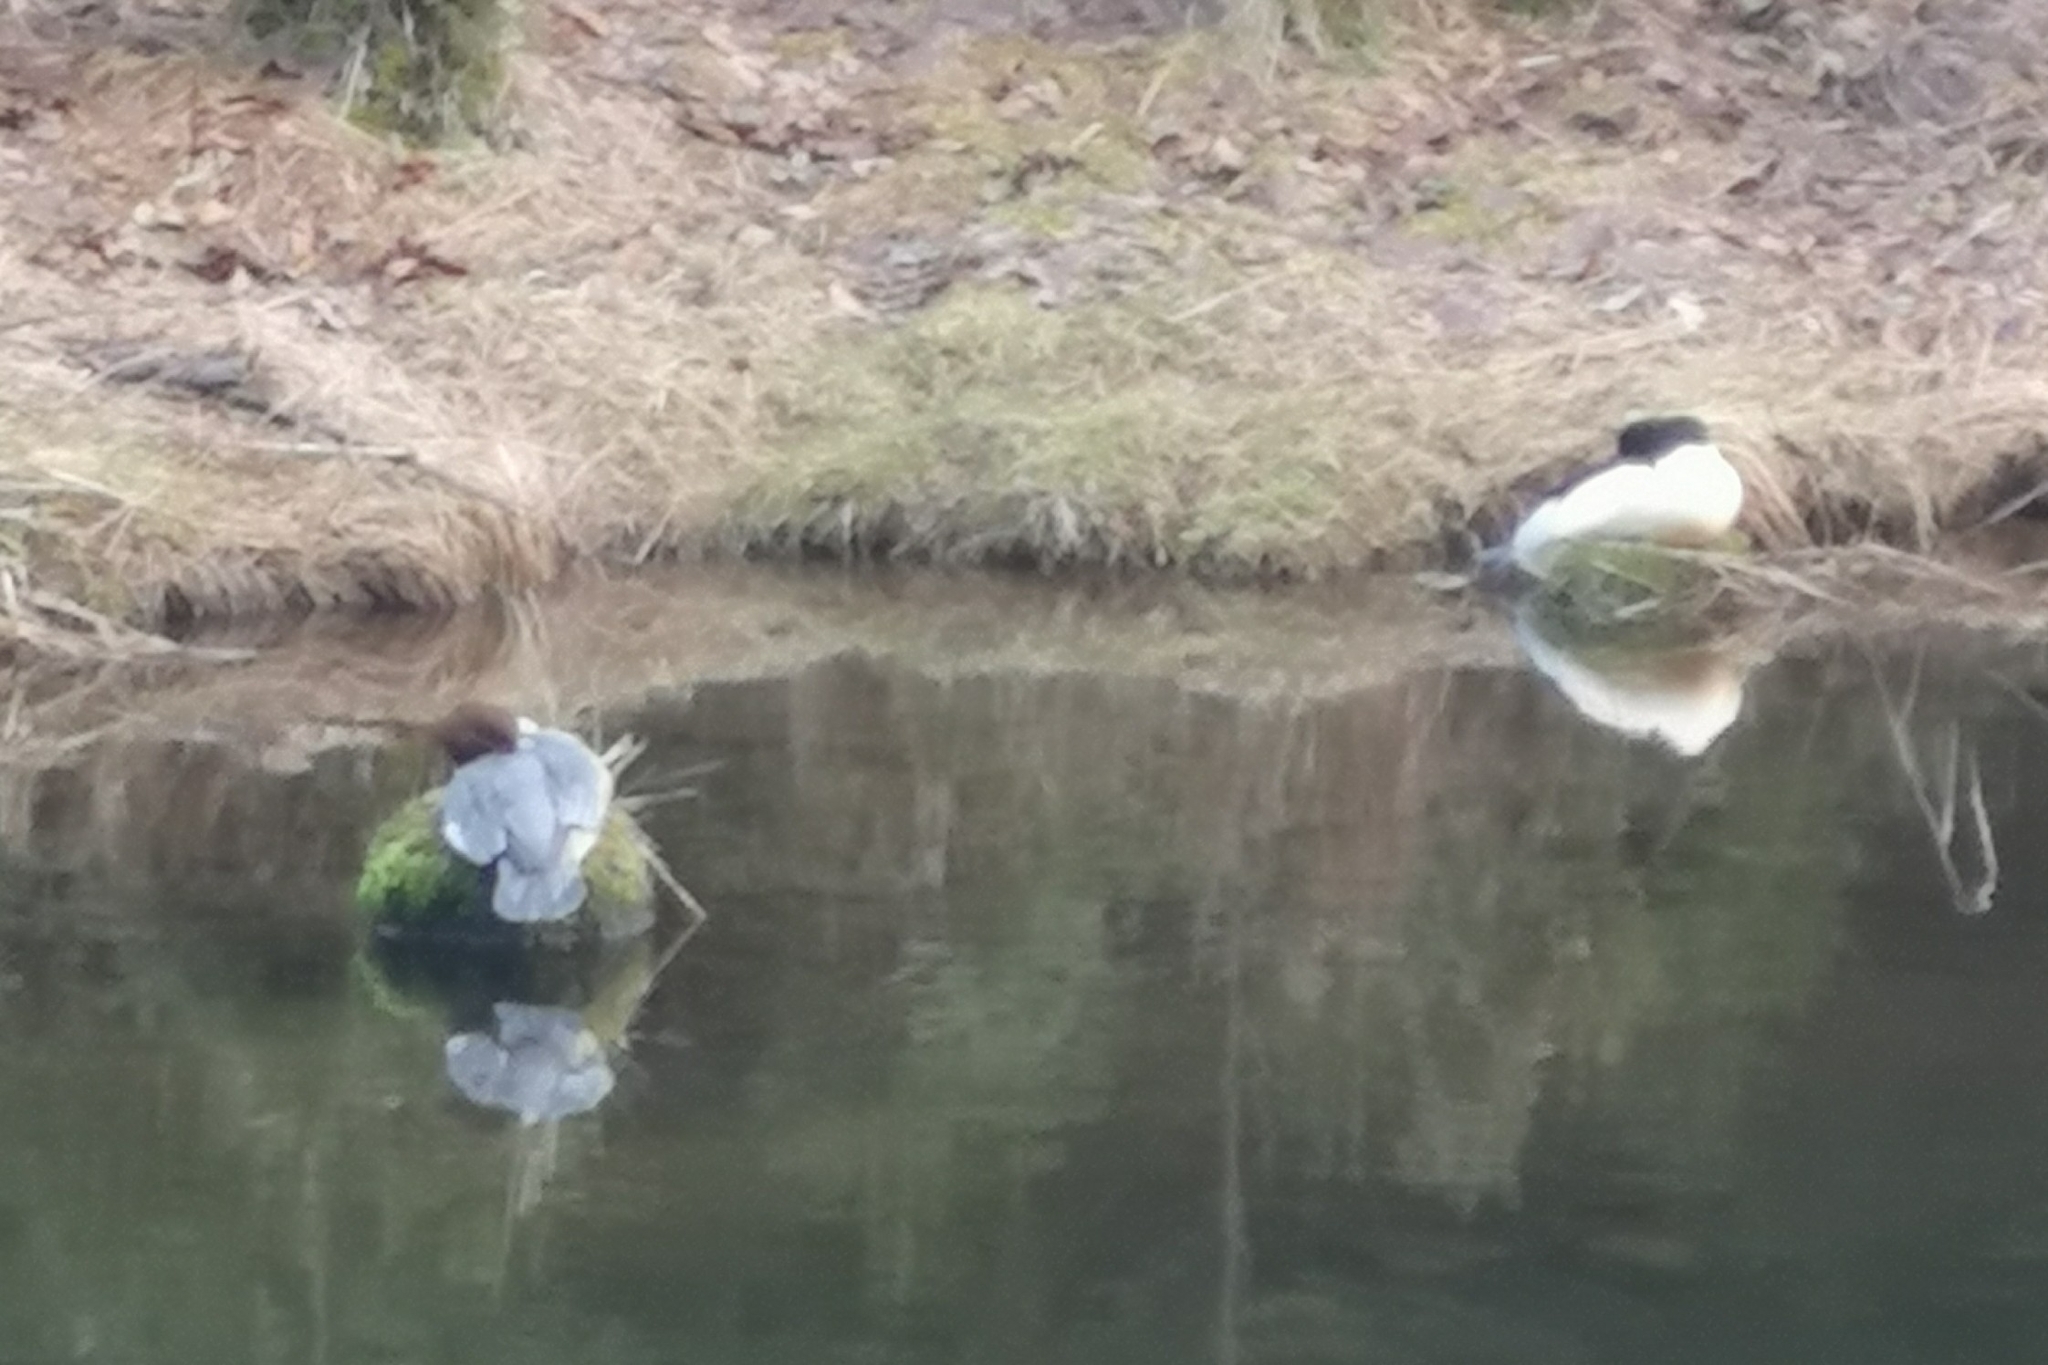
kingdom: Animalia
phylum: Chordata
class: Aves
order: Anseriformes
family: Anatidae
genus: Mergus
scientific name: Mergus merganser
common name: Common merganser
